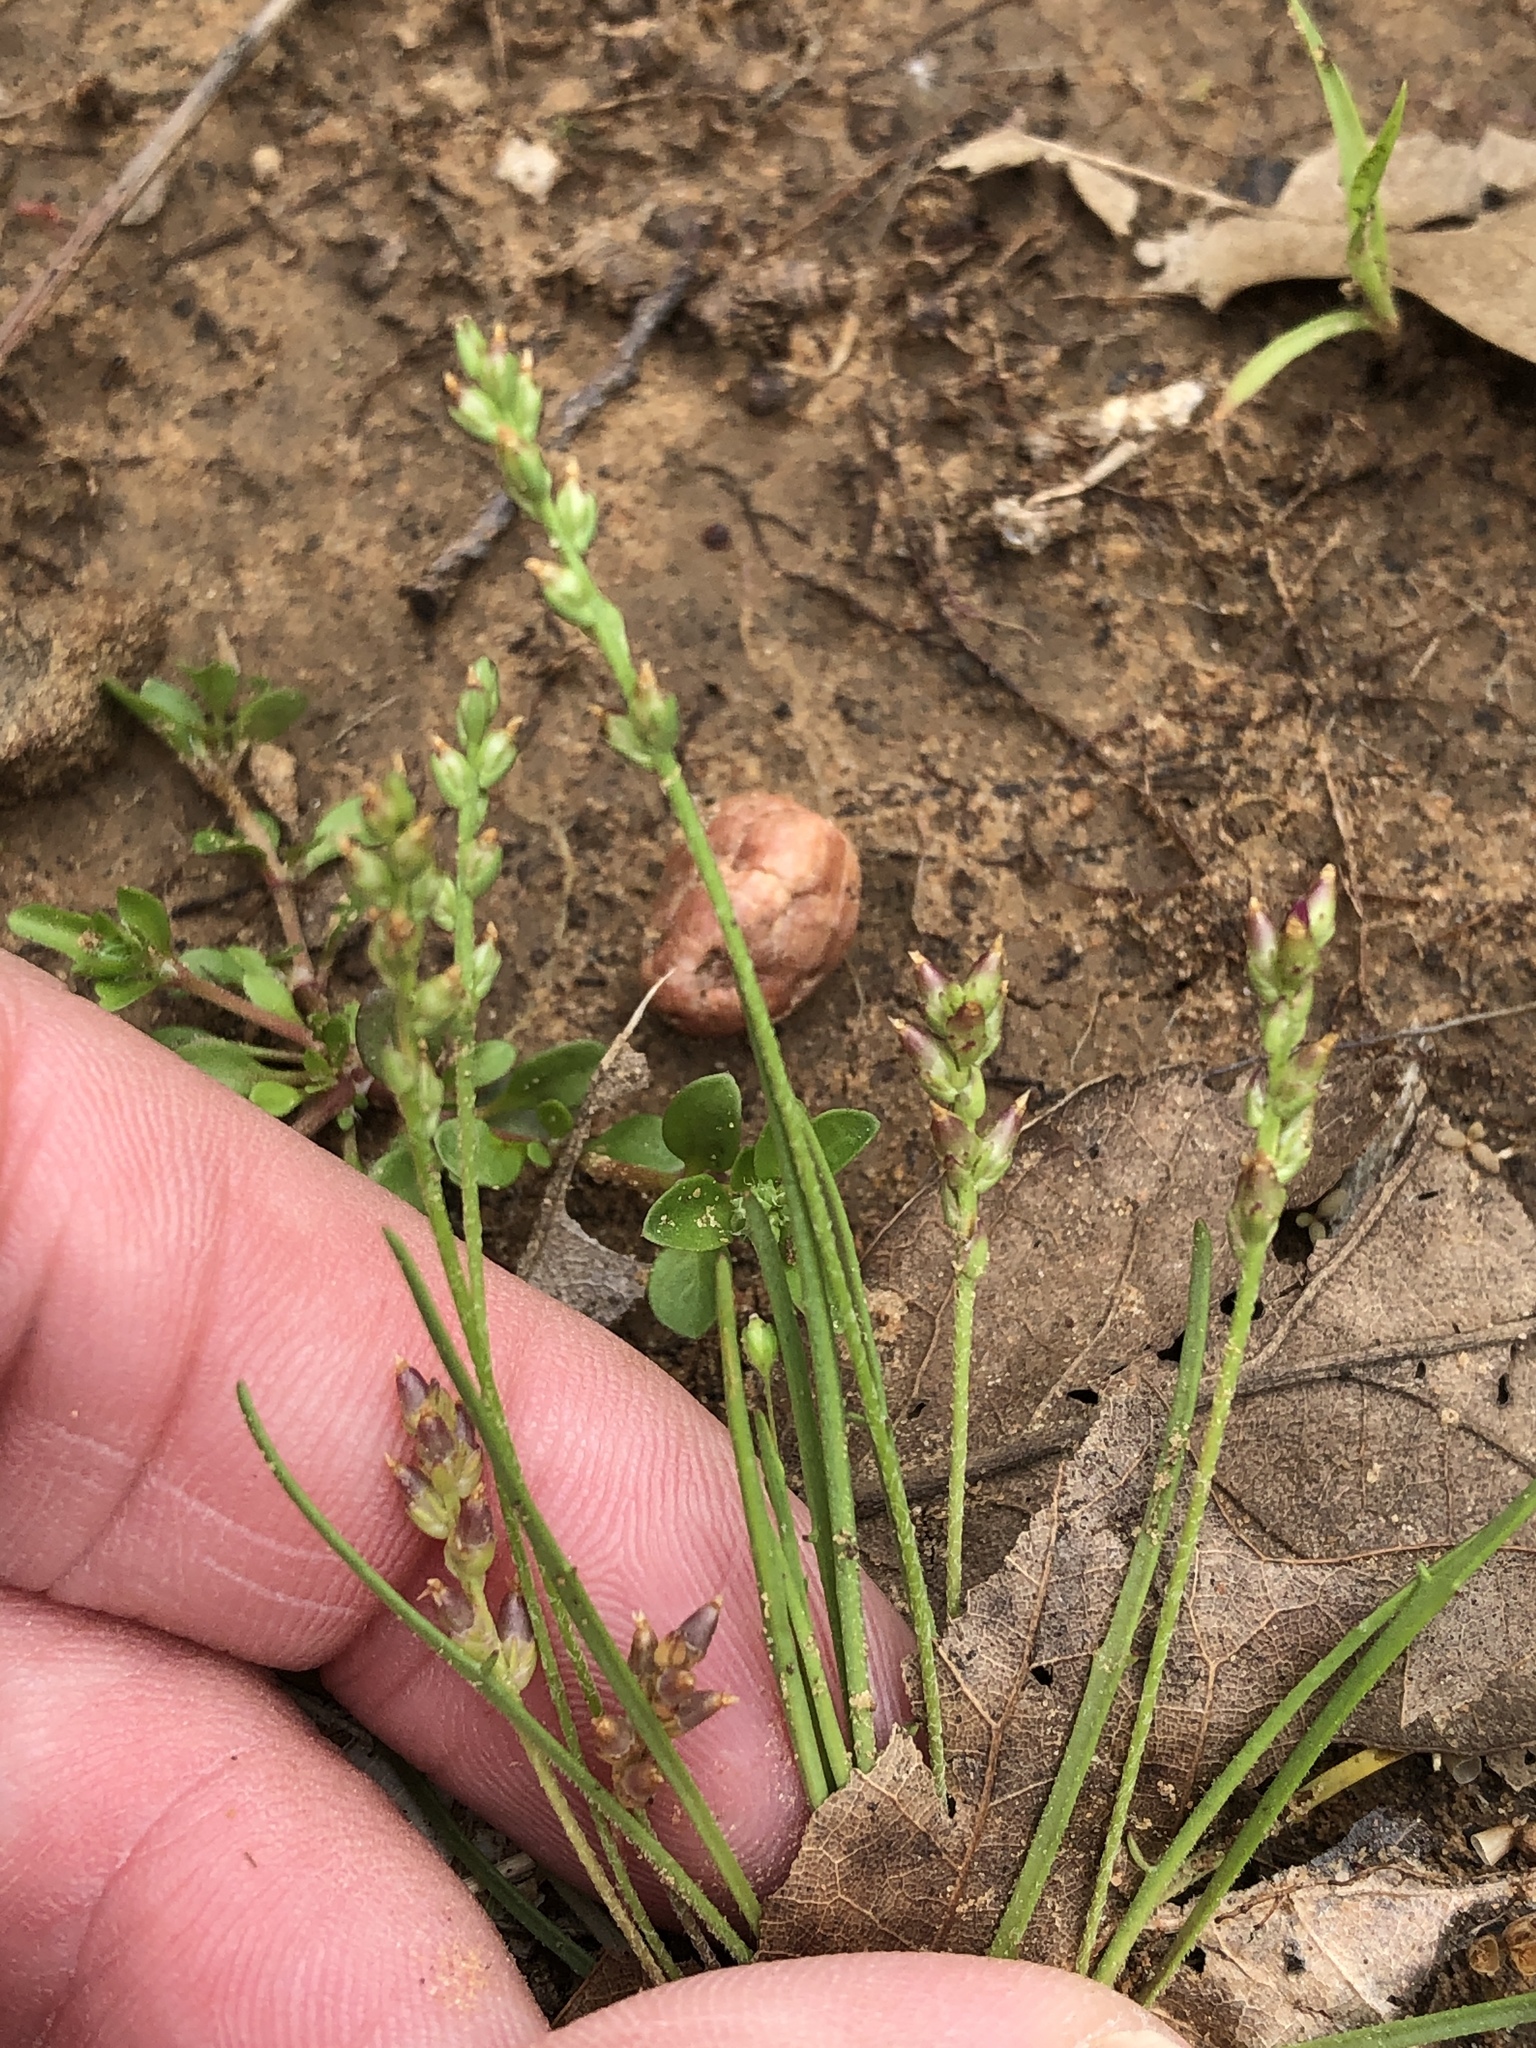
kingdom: Plantae
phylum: Tracheophyta
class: Magnoliopsida
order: Lamiales
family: Plantaginaceae
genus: Plantago
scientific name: Plantago heterophylla
